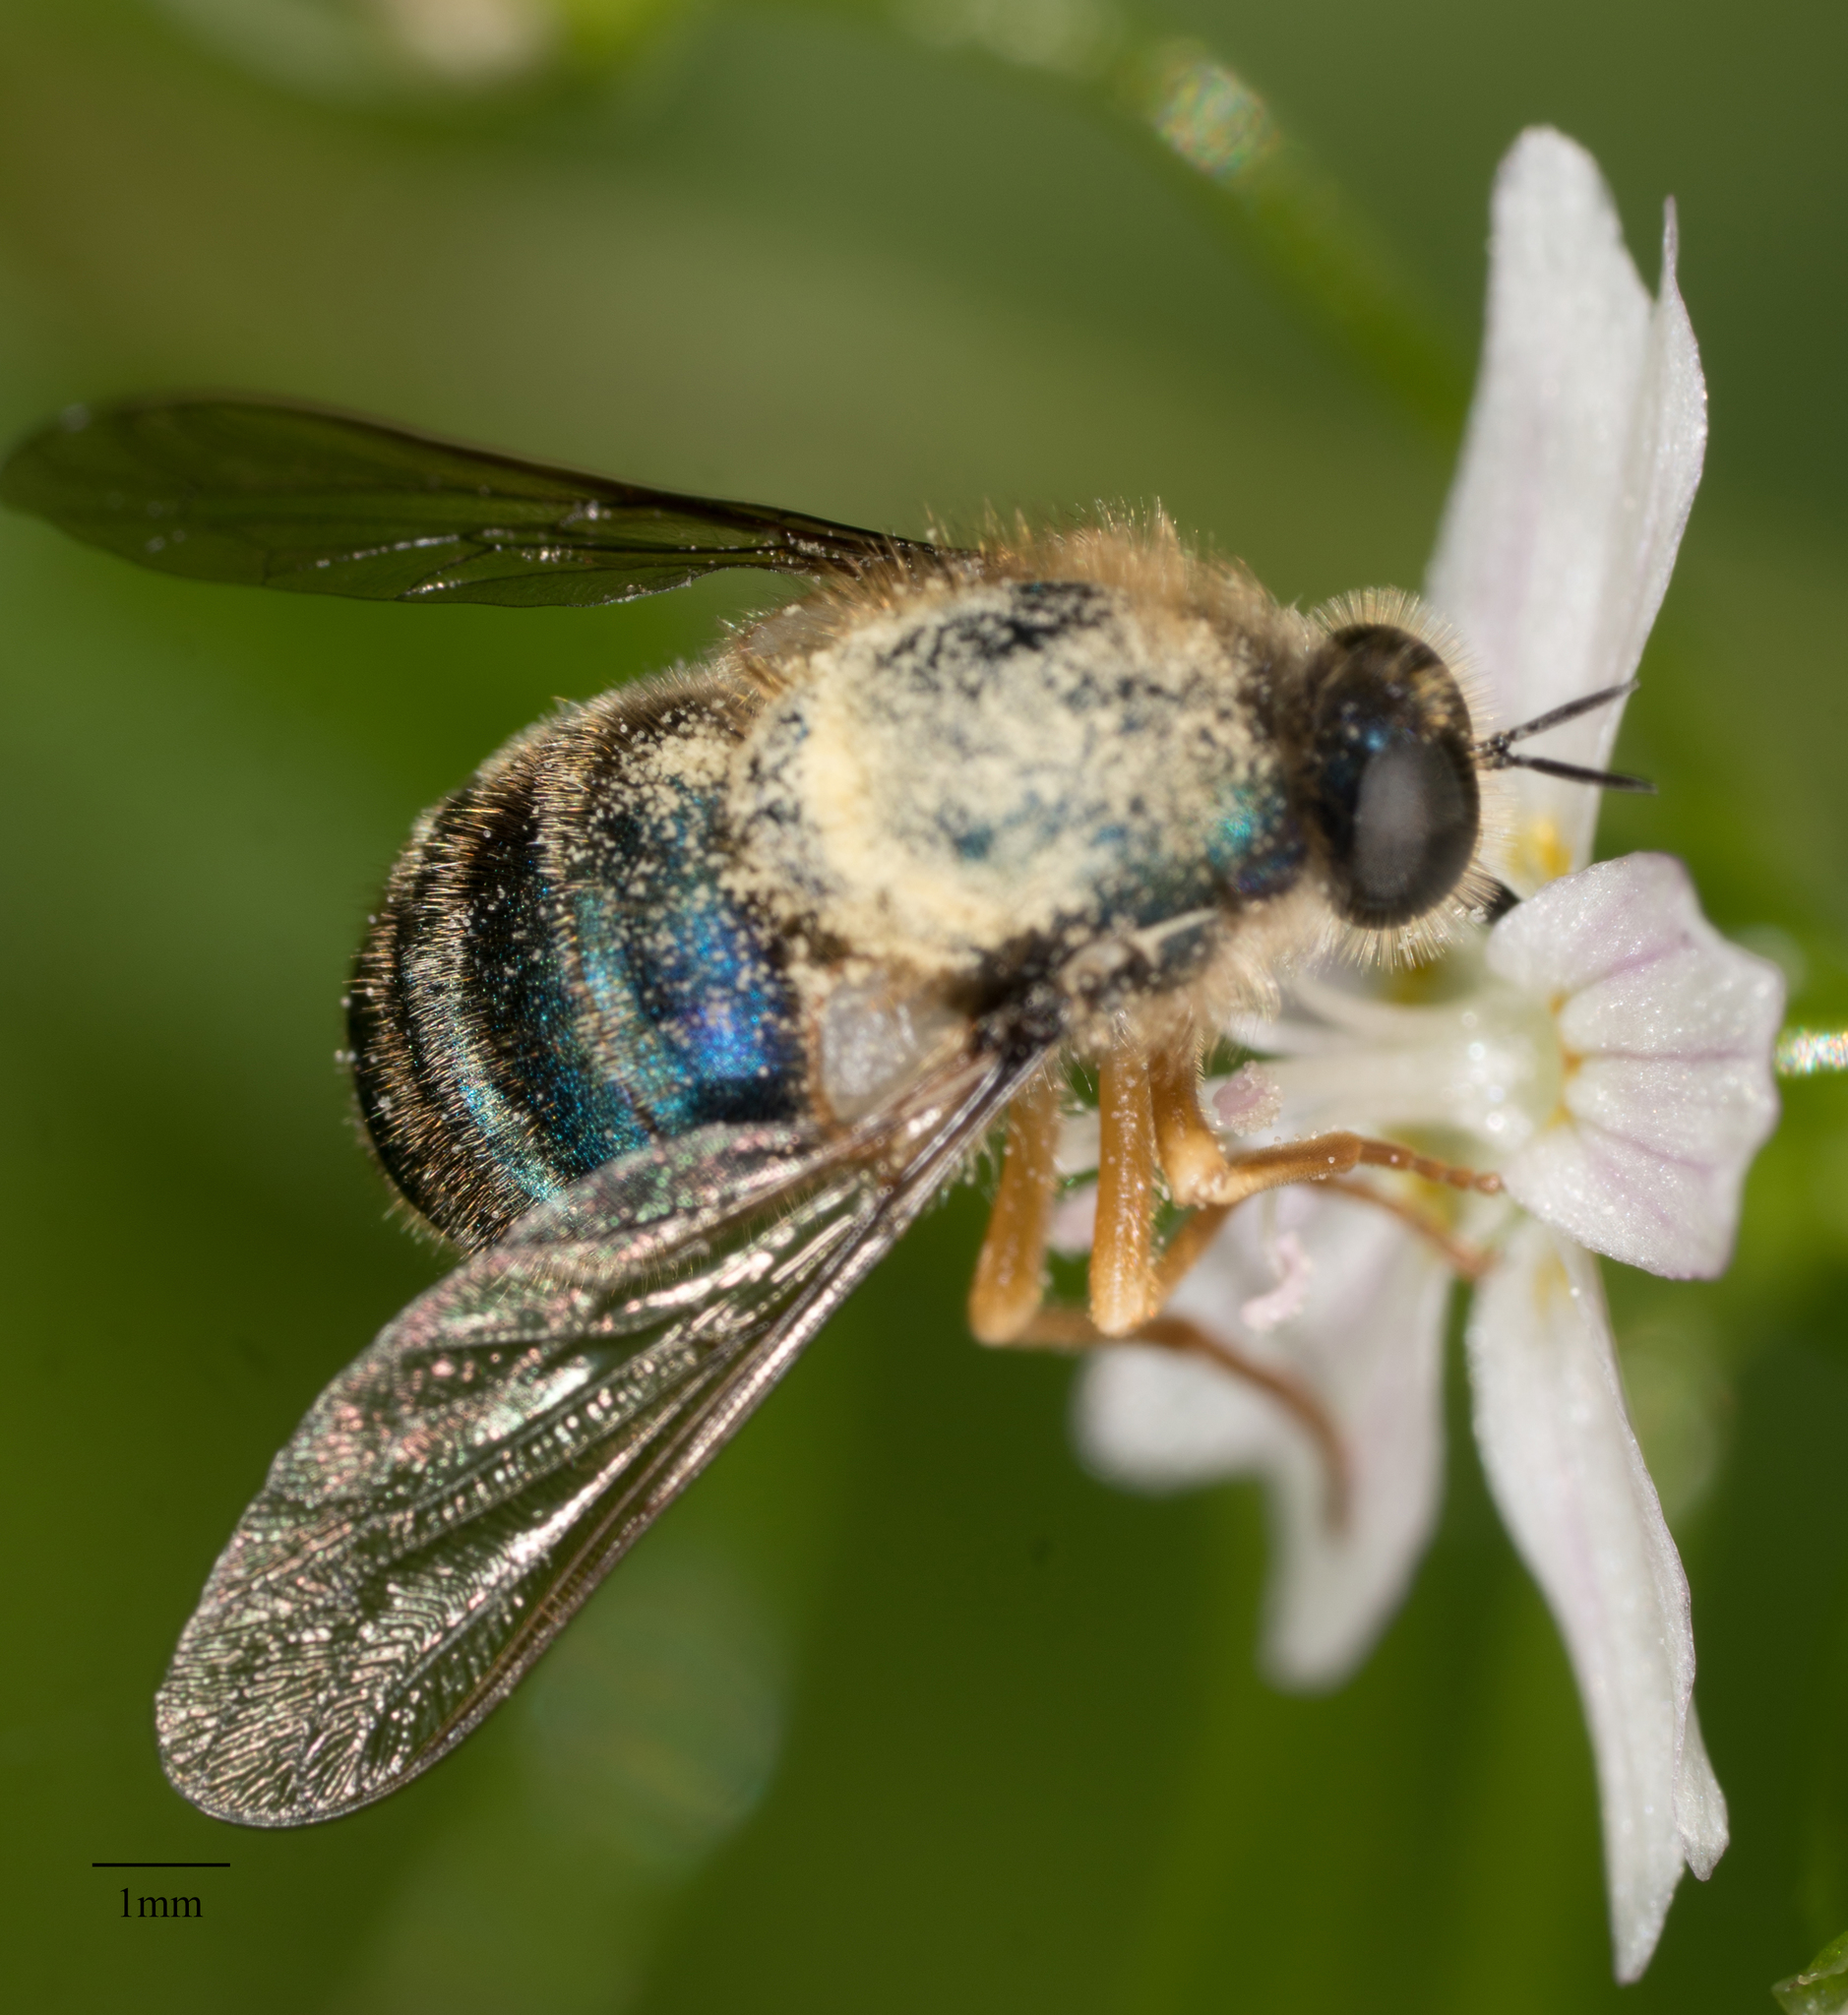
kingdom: Animalia
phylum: Arthropoda
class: Insecta
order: Diptera
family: Acroceridae
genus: Eulonchus
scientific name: Eulonchus sapphirinus
